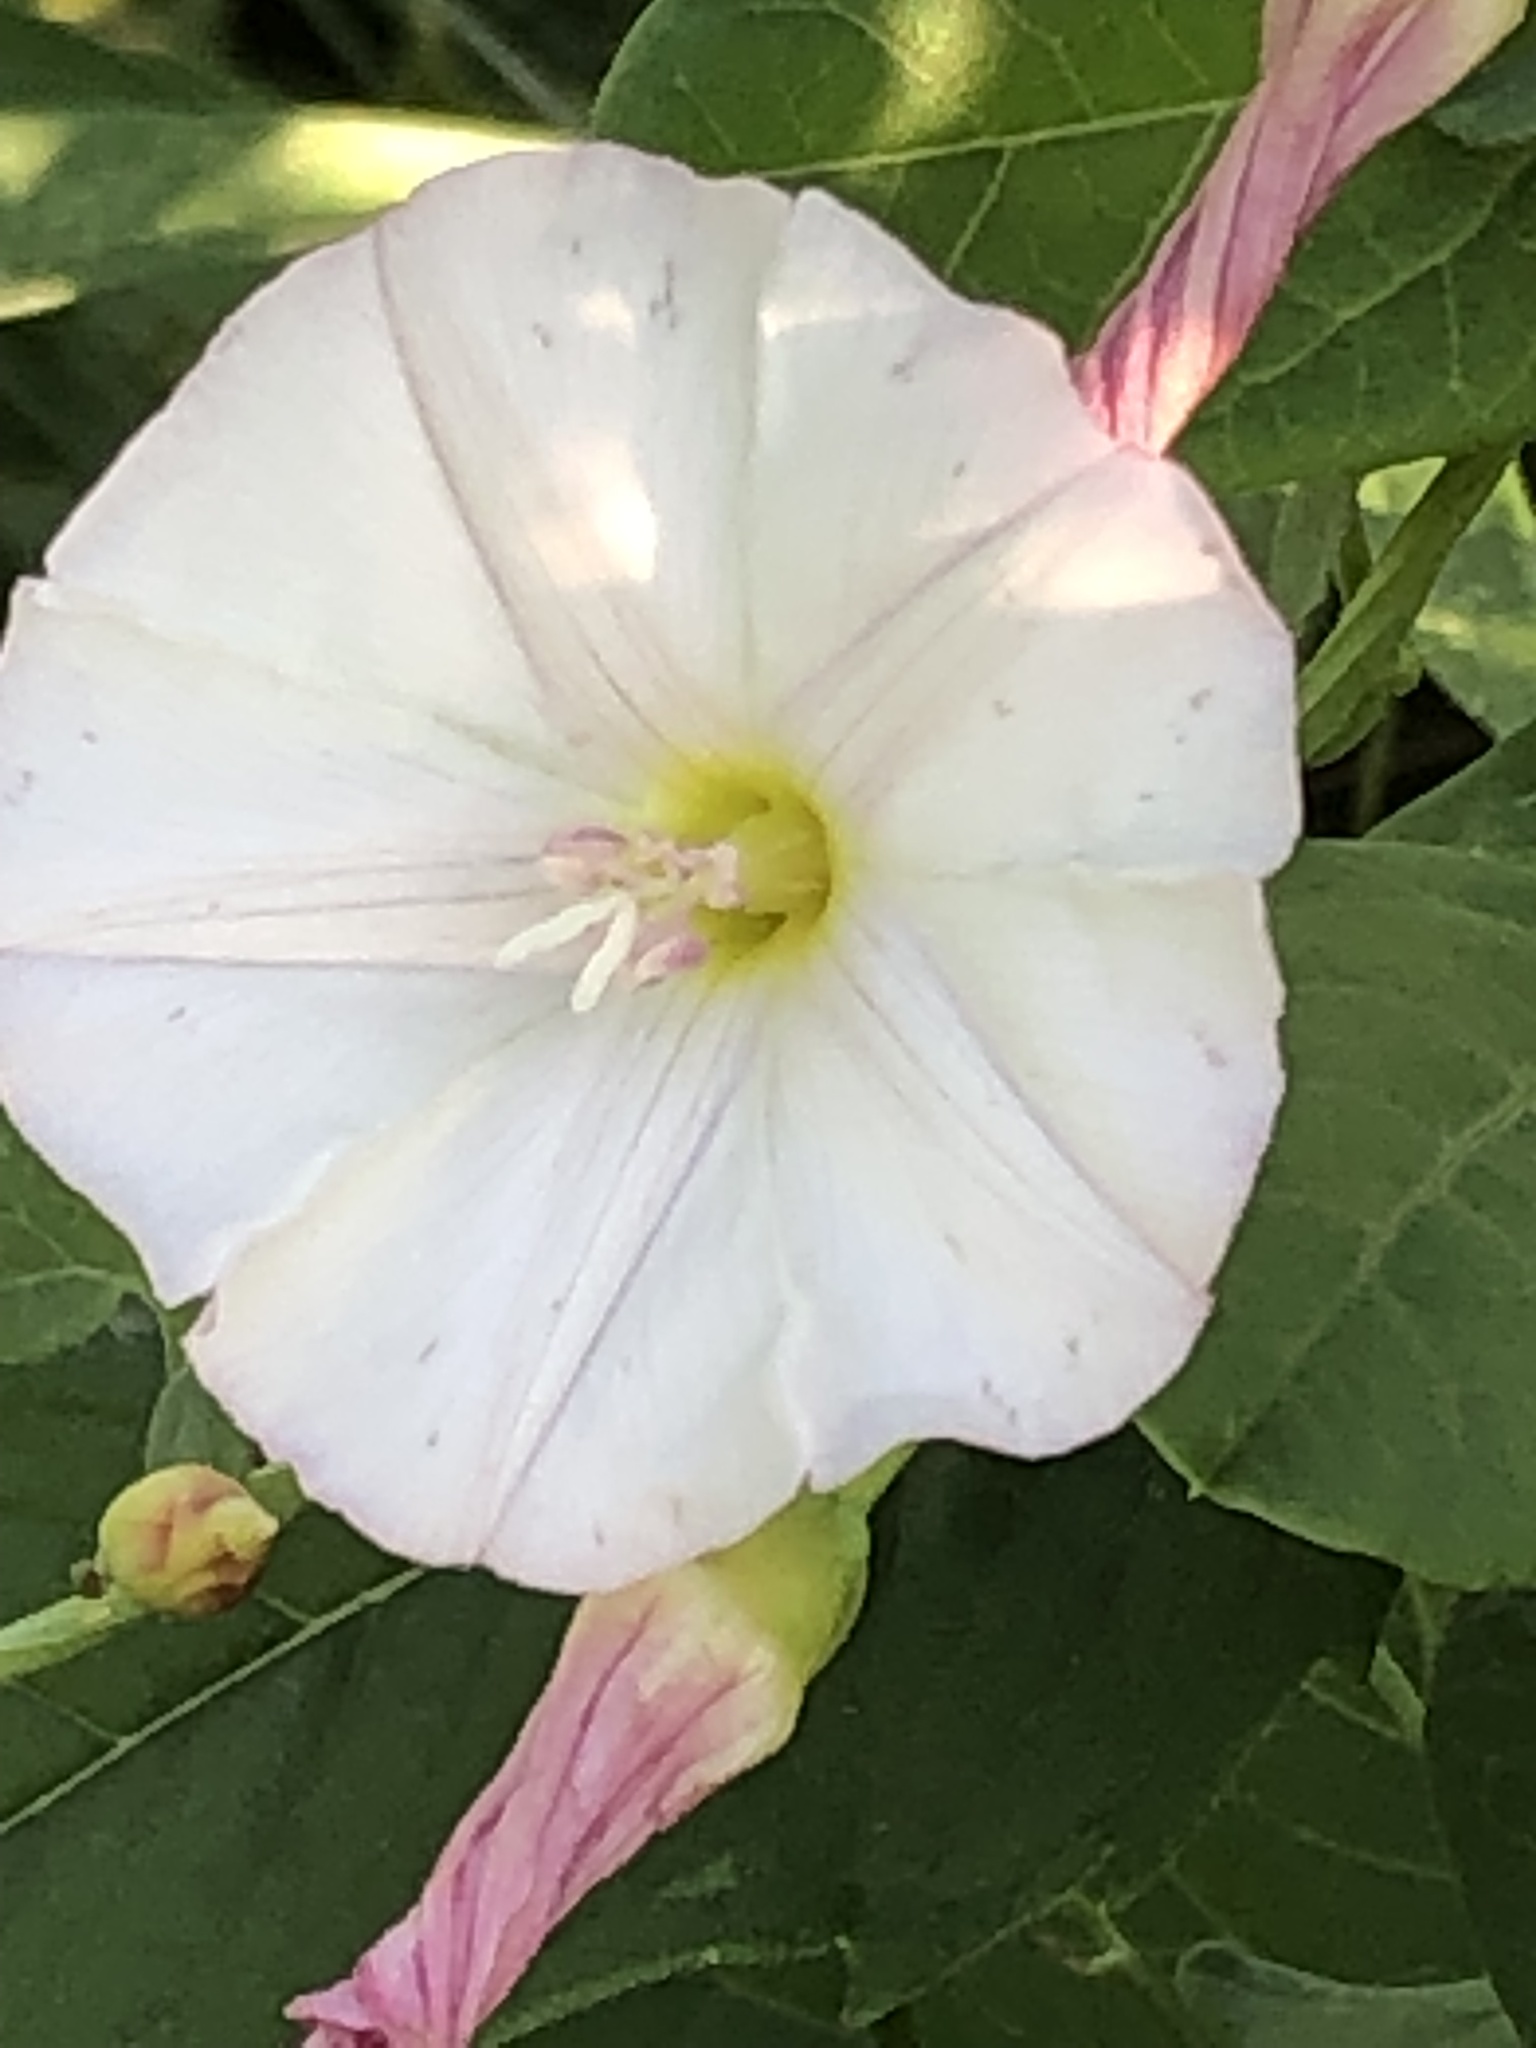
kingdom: Plantae
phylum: Tracheophyta
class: Magnoliopsida
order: Solanales
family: Convolvulaceae
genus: Convolvulus
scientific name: Convolvulus arvensis
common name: Field bindweed
